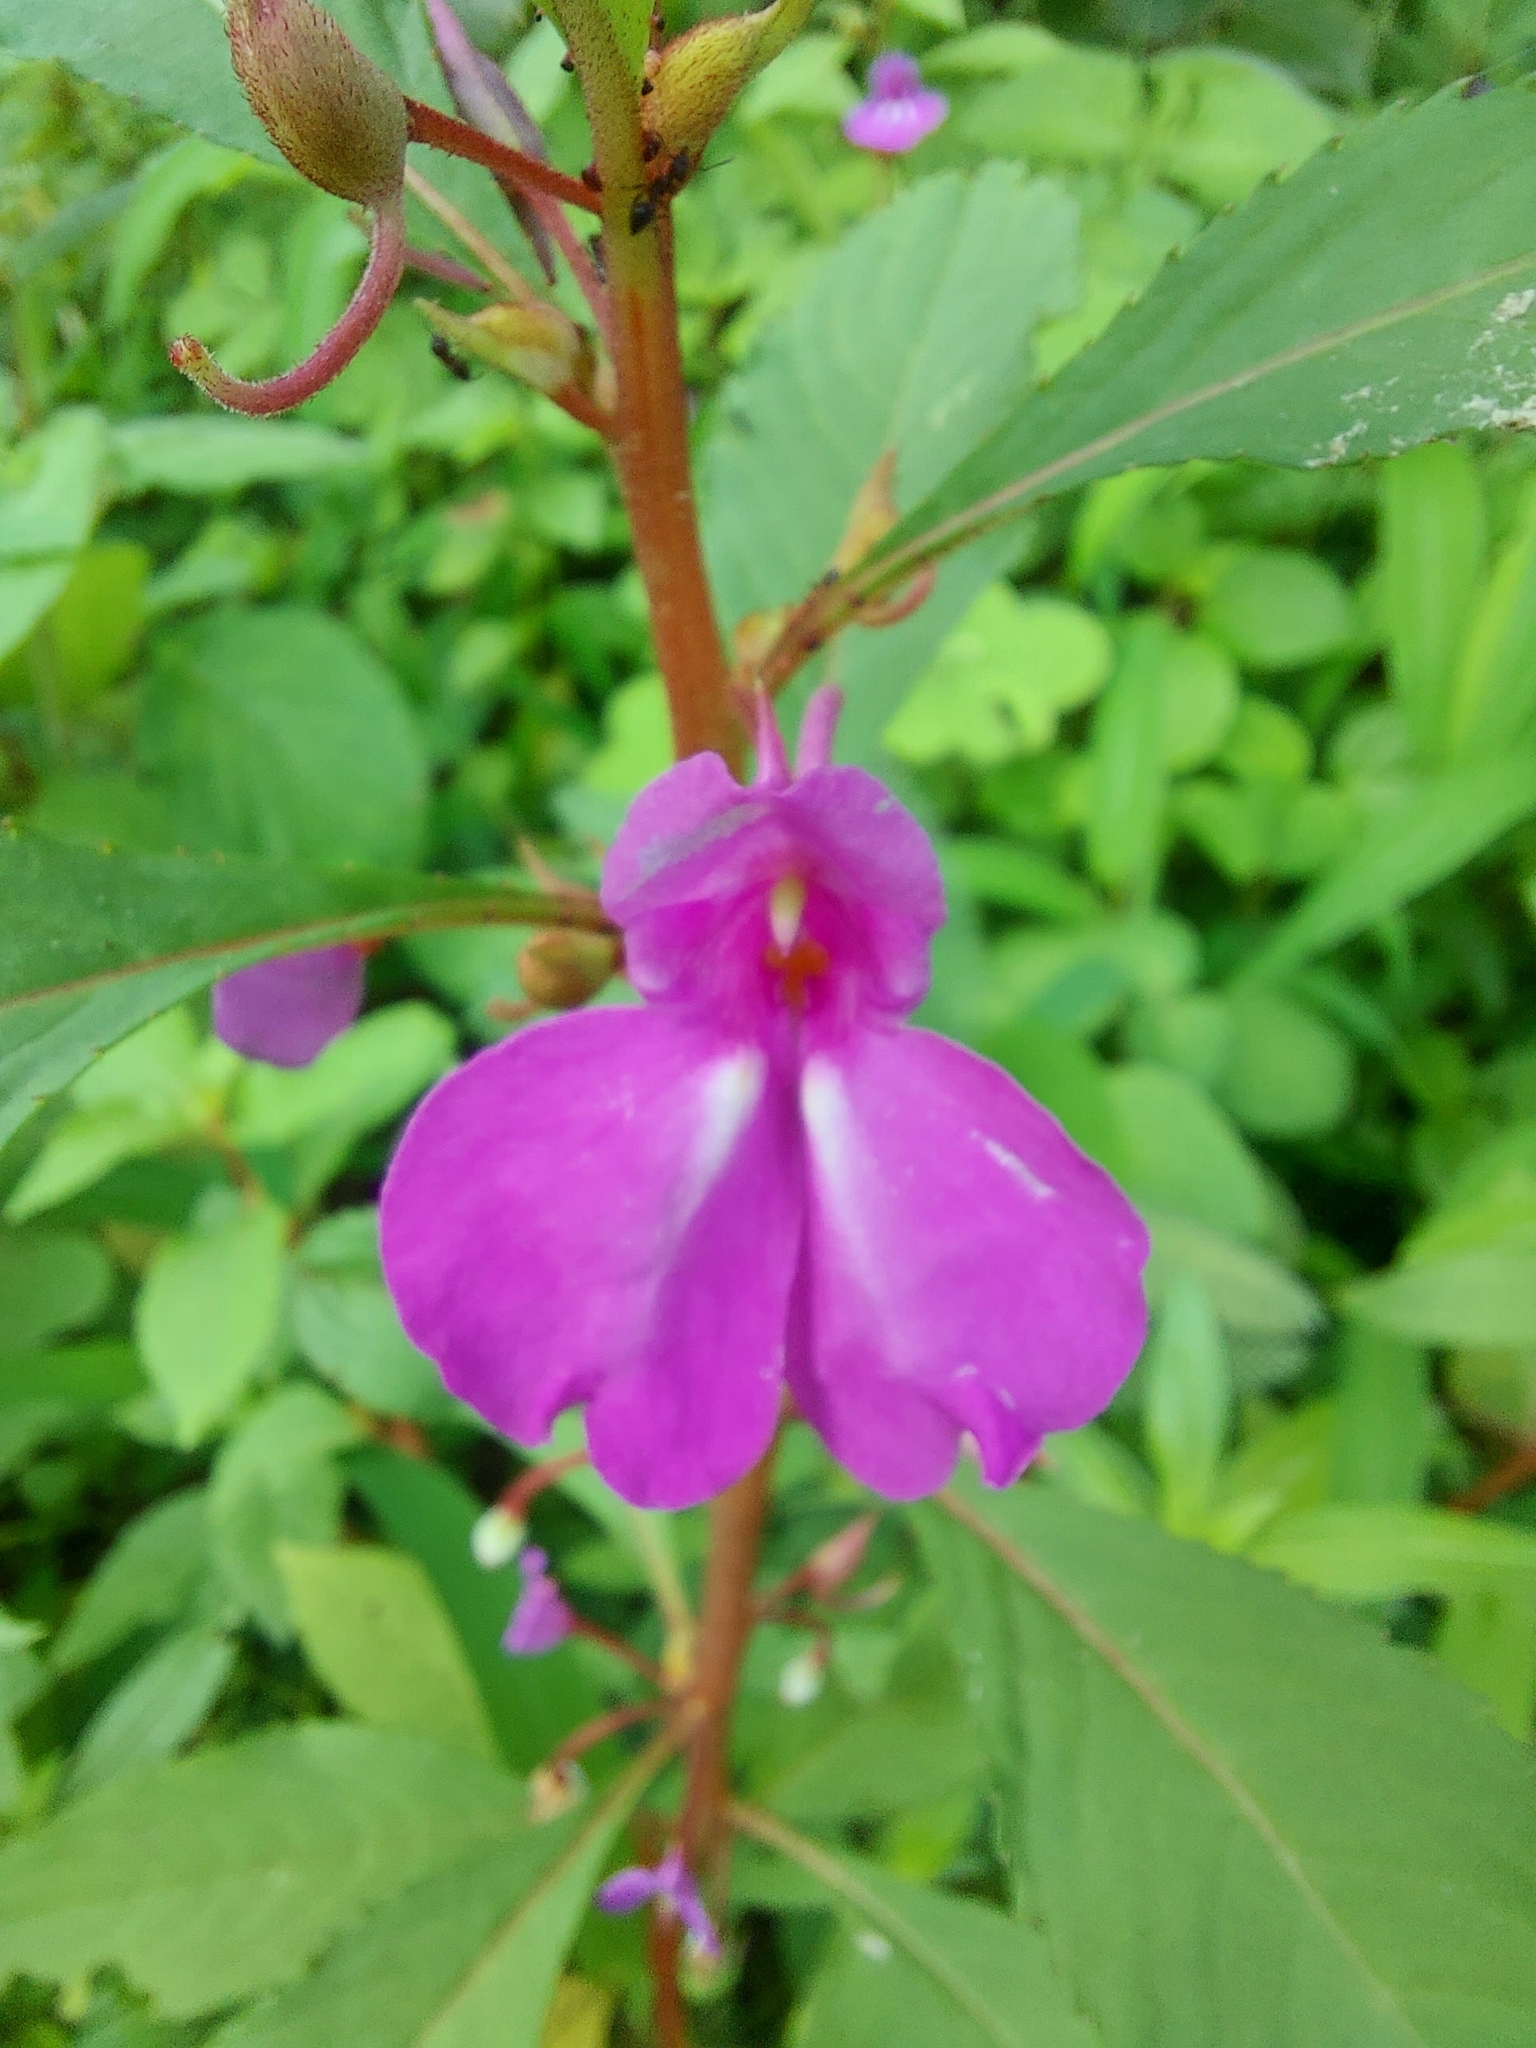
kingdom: Plantae
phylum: Tracheophyta
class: Magnoliopsida
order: Ericales
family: Balsaminaceae
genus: Impatiens
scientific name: Impatiens balsamina
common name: Balsam
